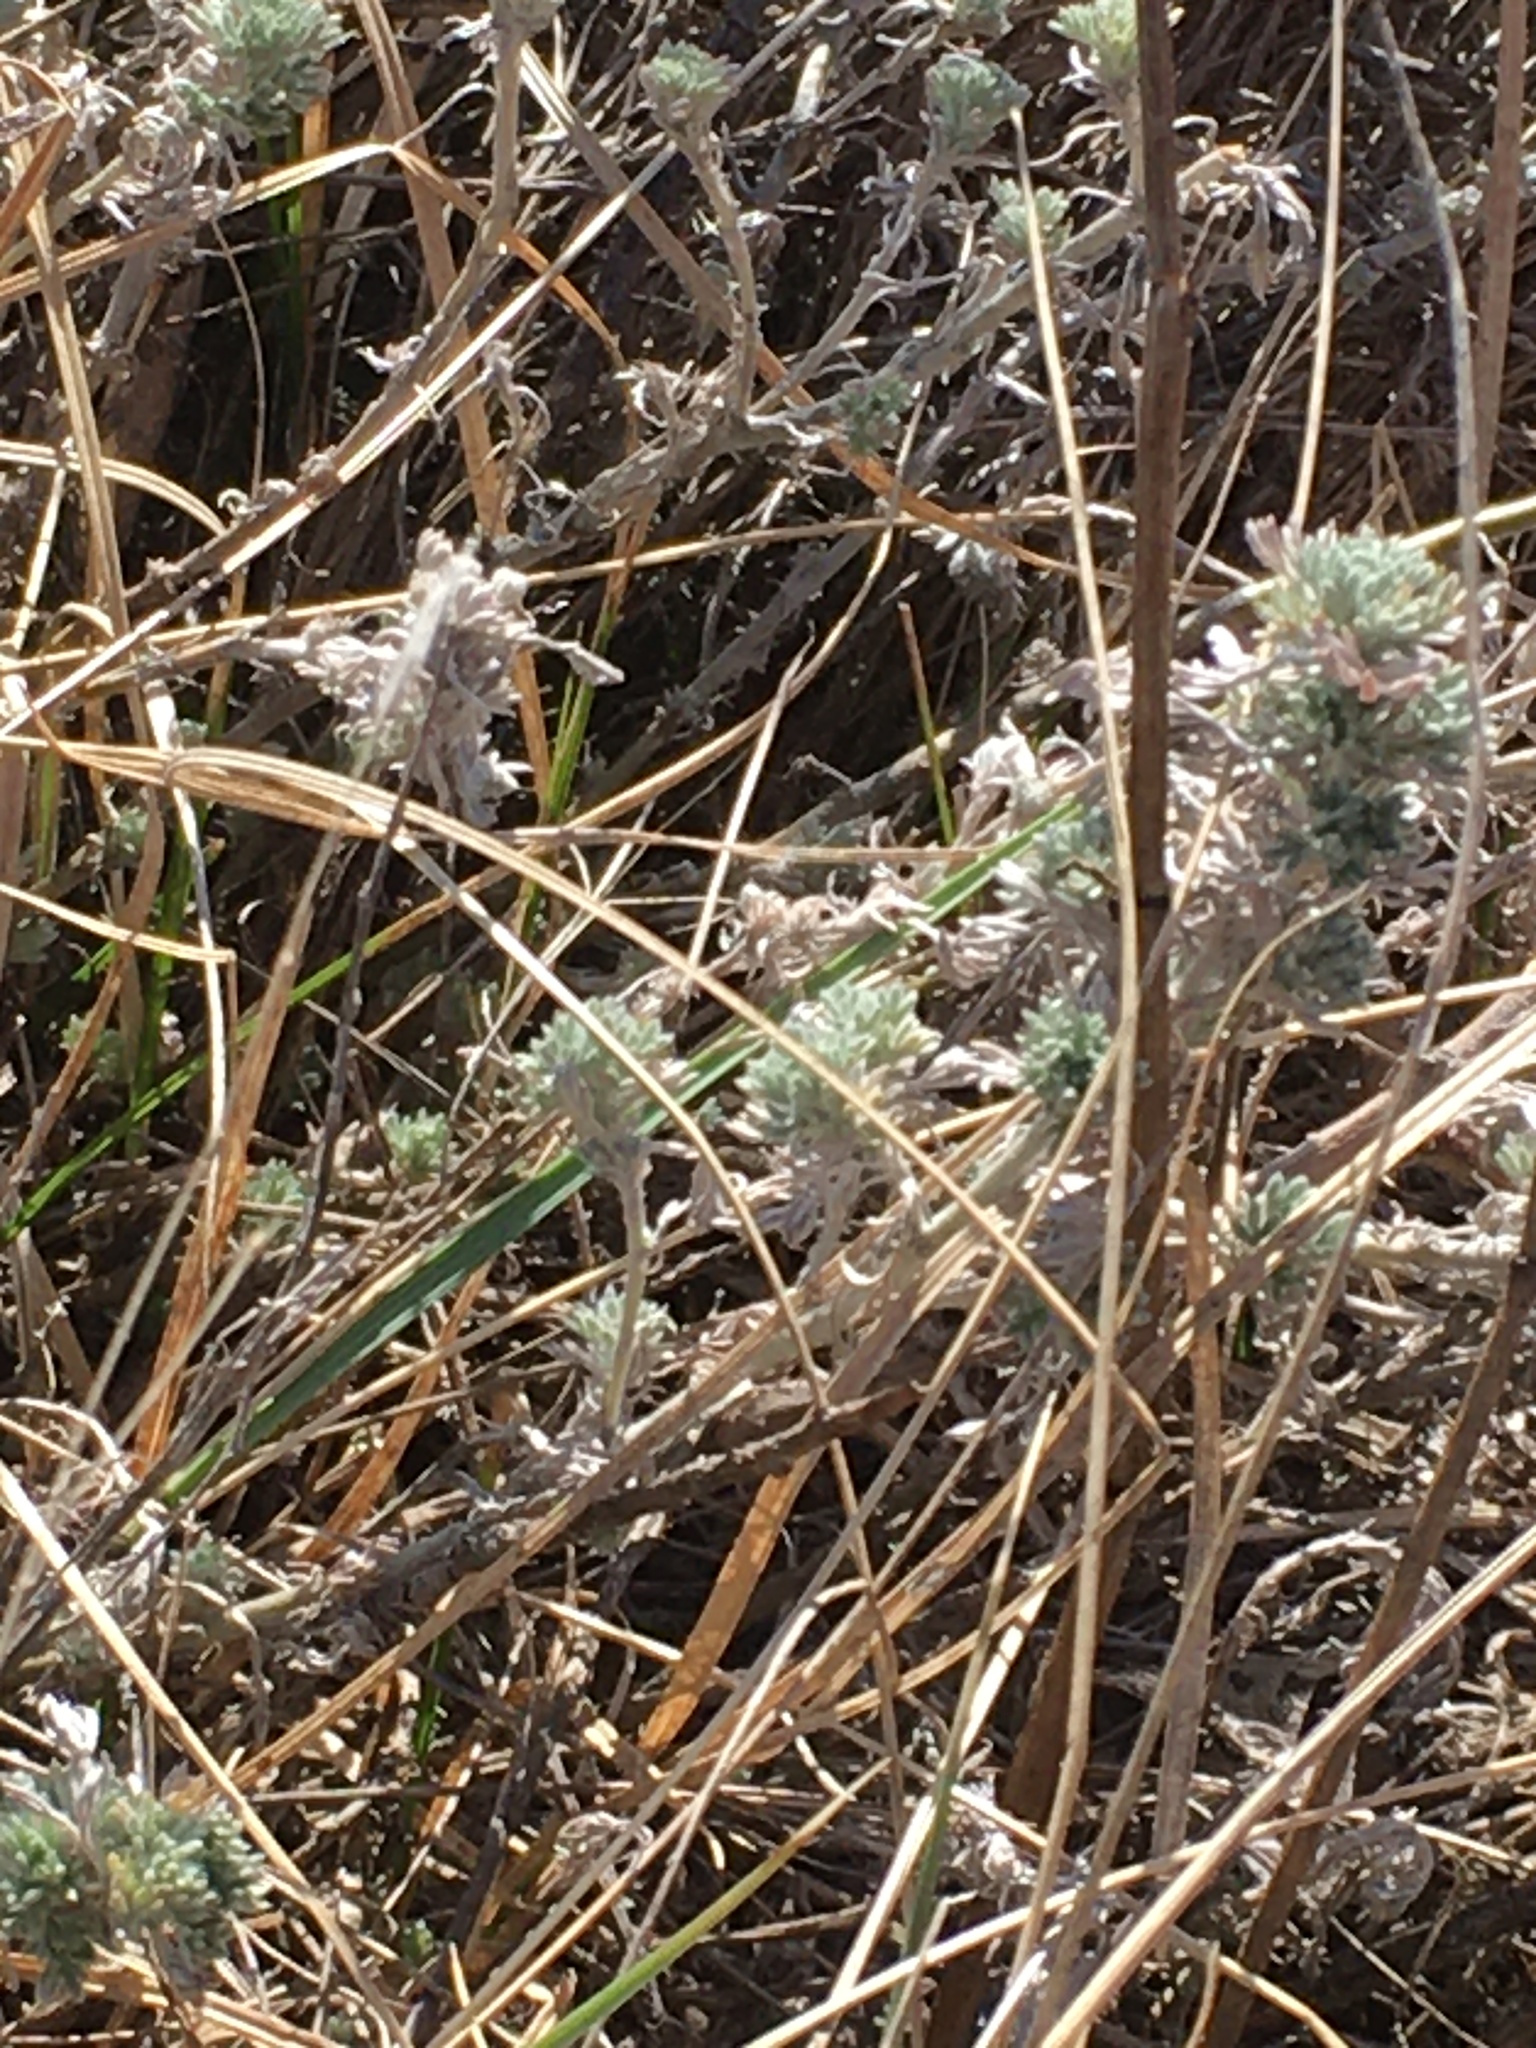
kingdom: Plantae
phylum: Tracheophyta
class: Magnoliopsida
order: Asterales
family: Asteraceae
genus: Artemisia
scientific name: Artemisia frigida
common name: Prairie sagewort
